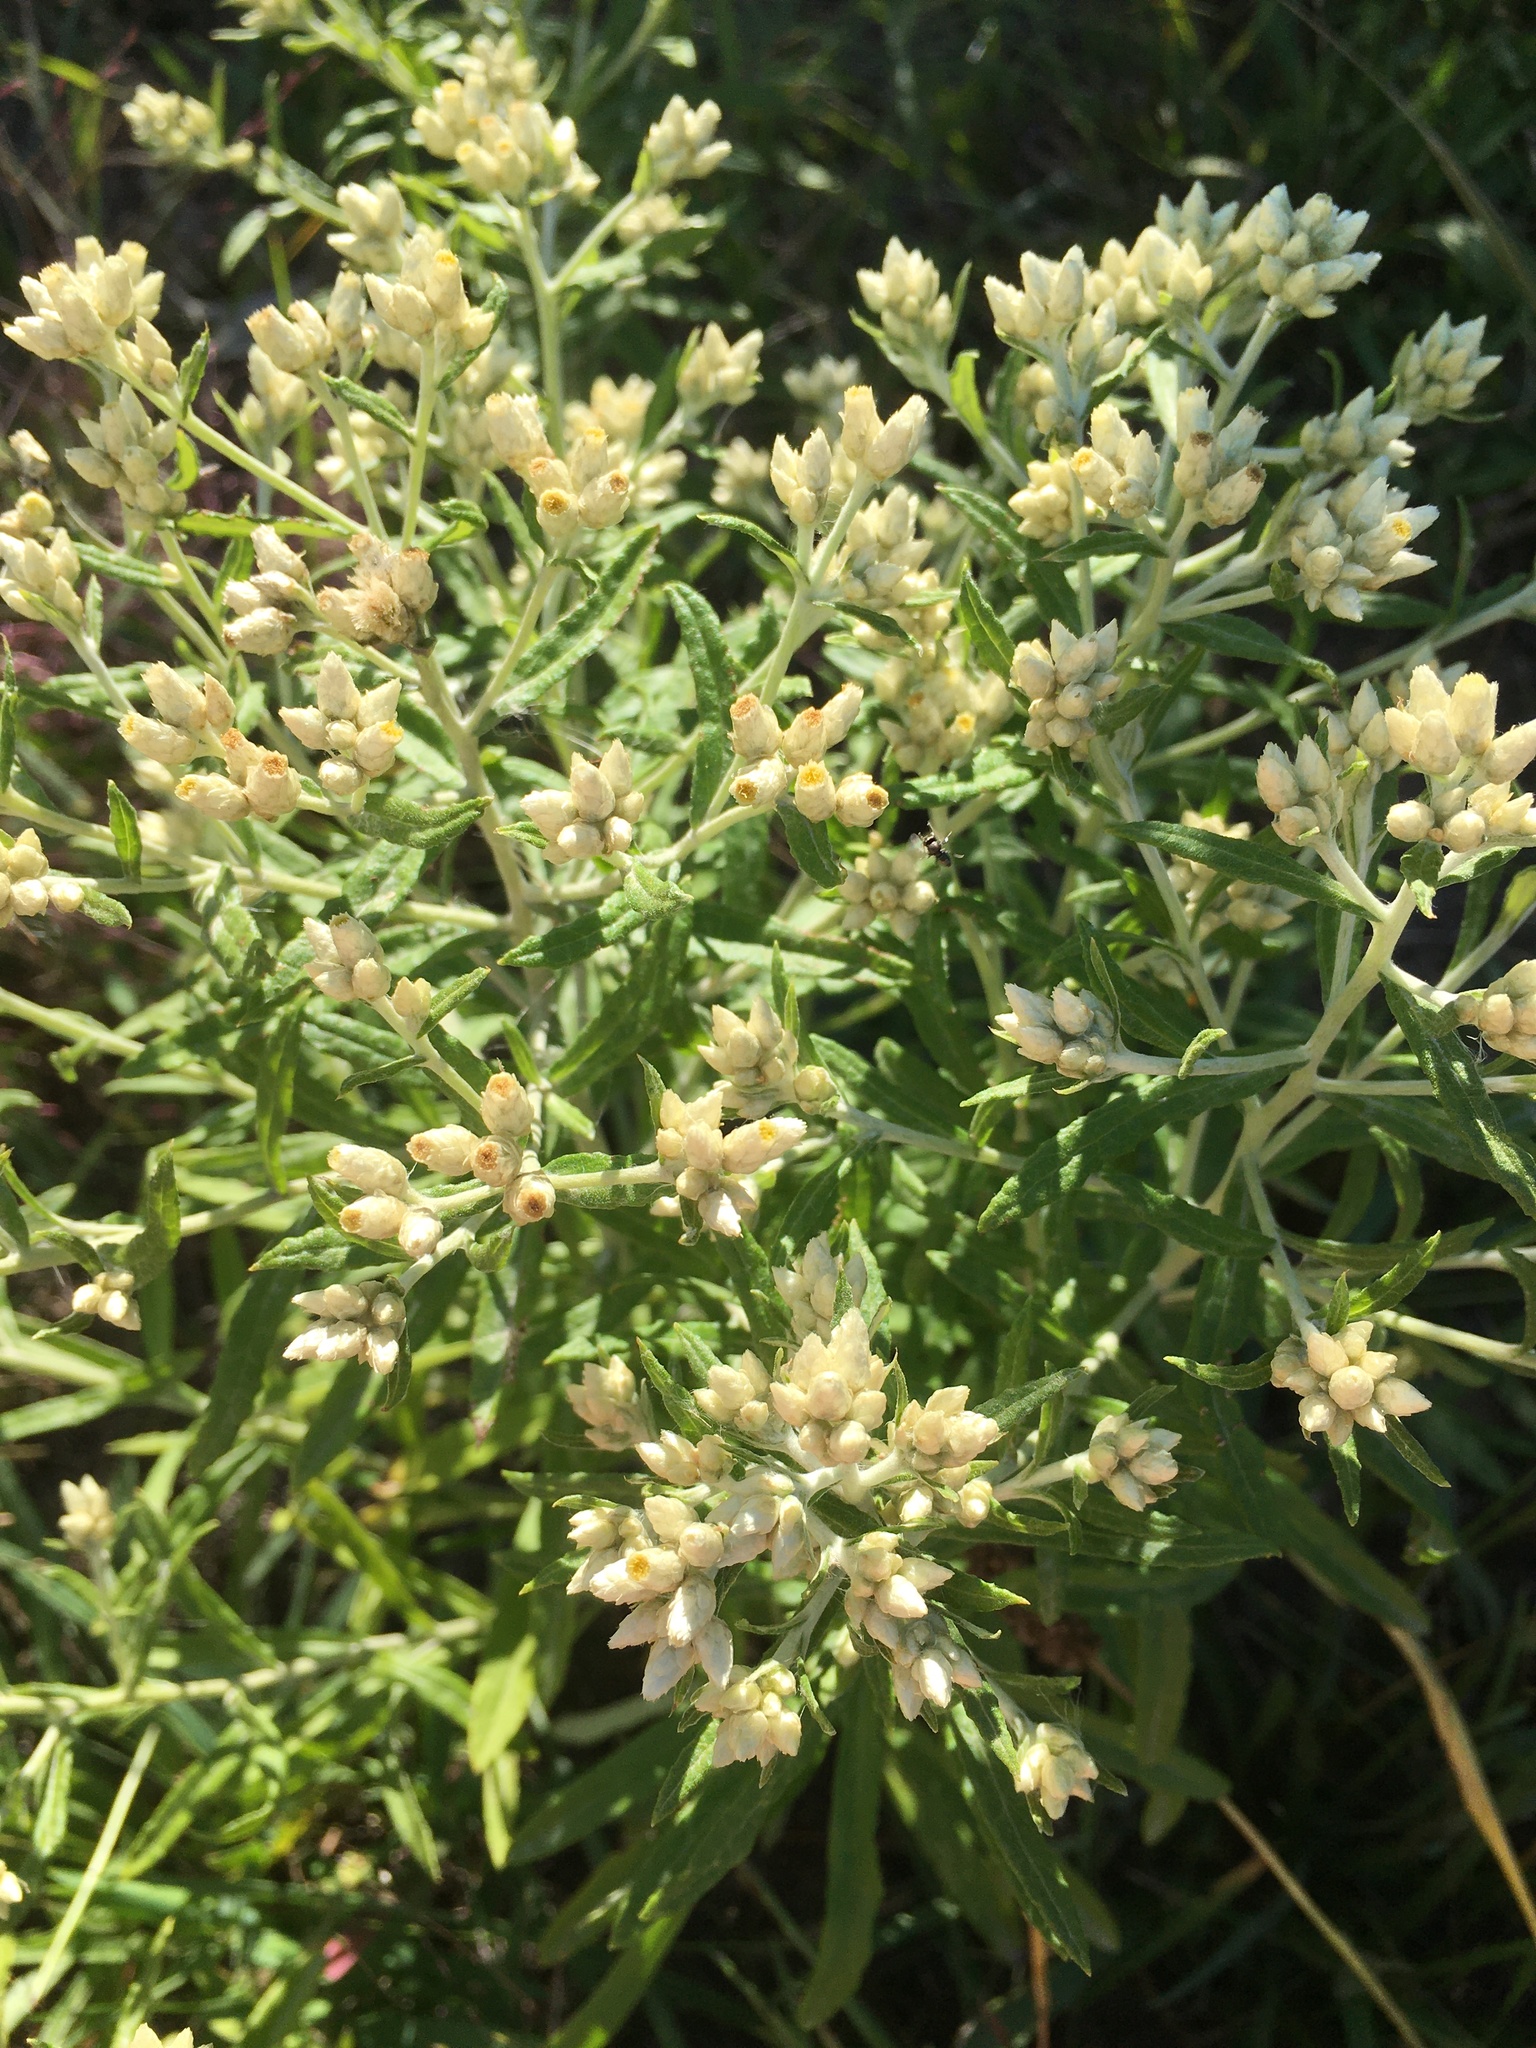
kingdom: Plantae
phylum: Tracheophyta
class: Magnoliopsida
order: Asterales
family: Asteraceae
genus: Pseudognaphalium
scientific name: Pseudognaphalium obtusifolium
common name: Eastern rabbit-tobacco
